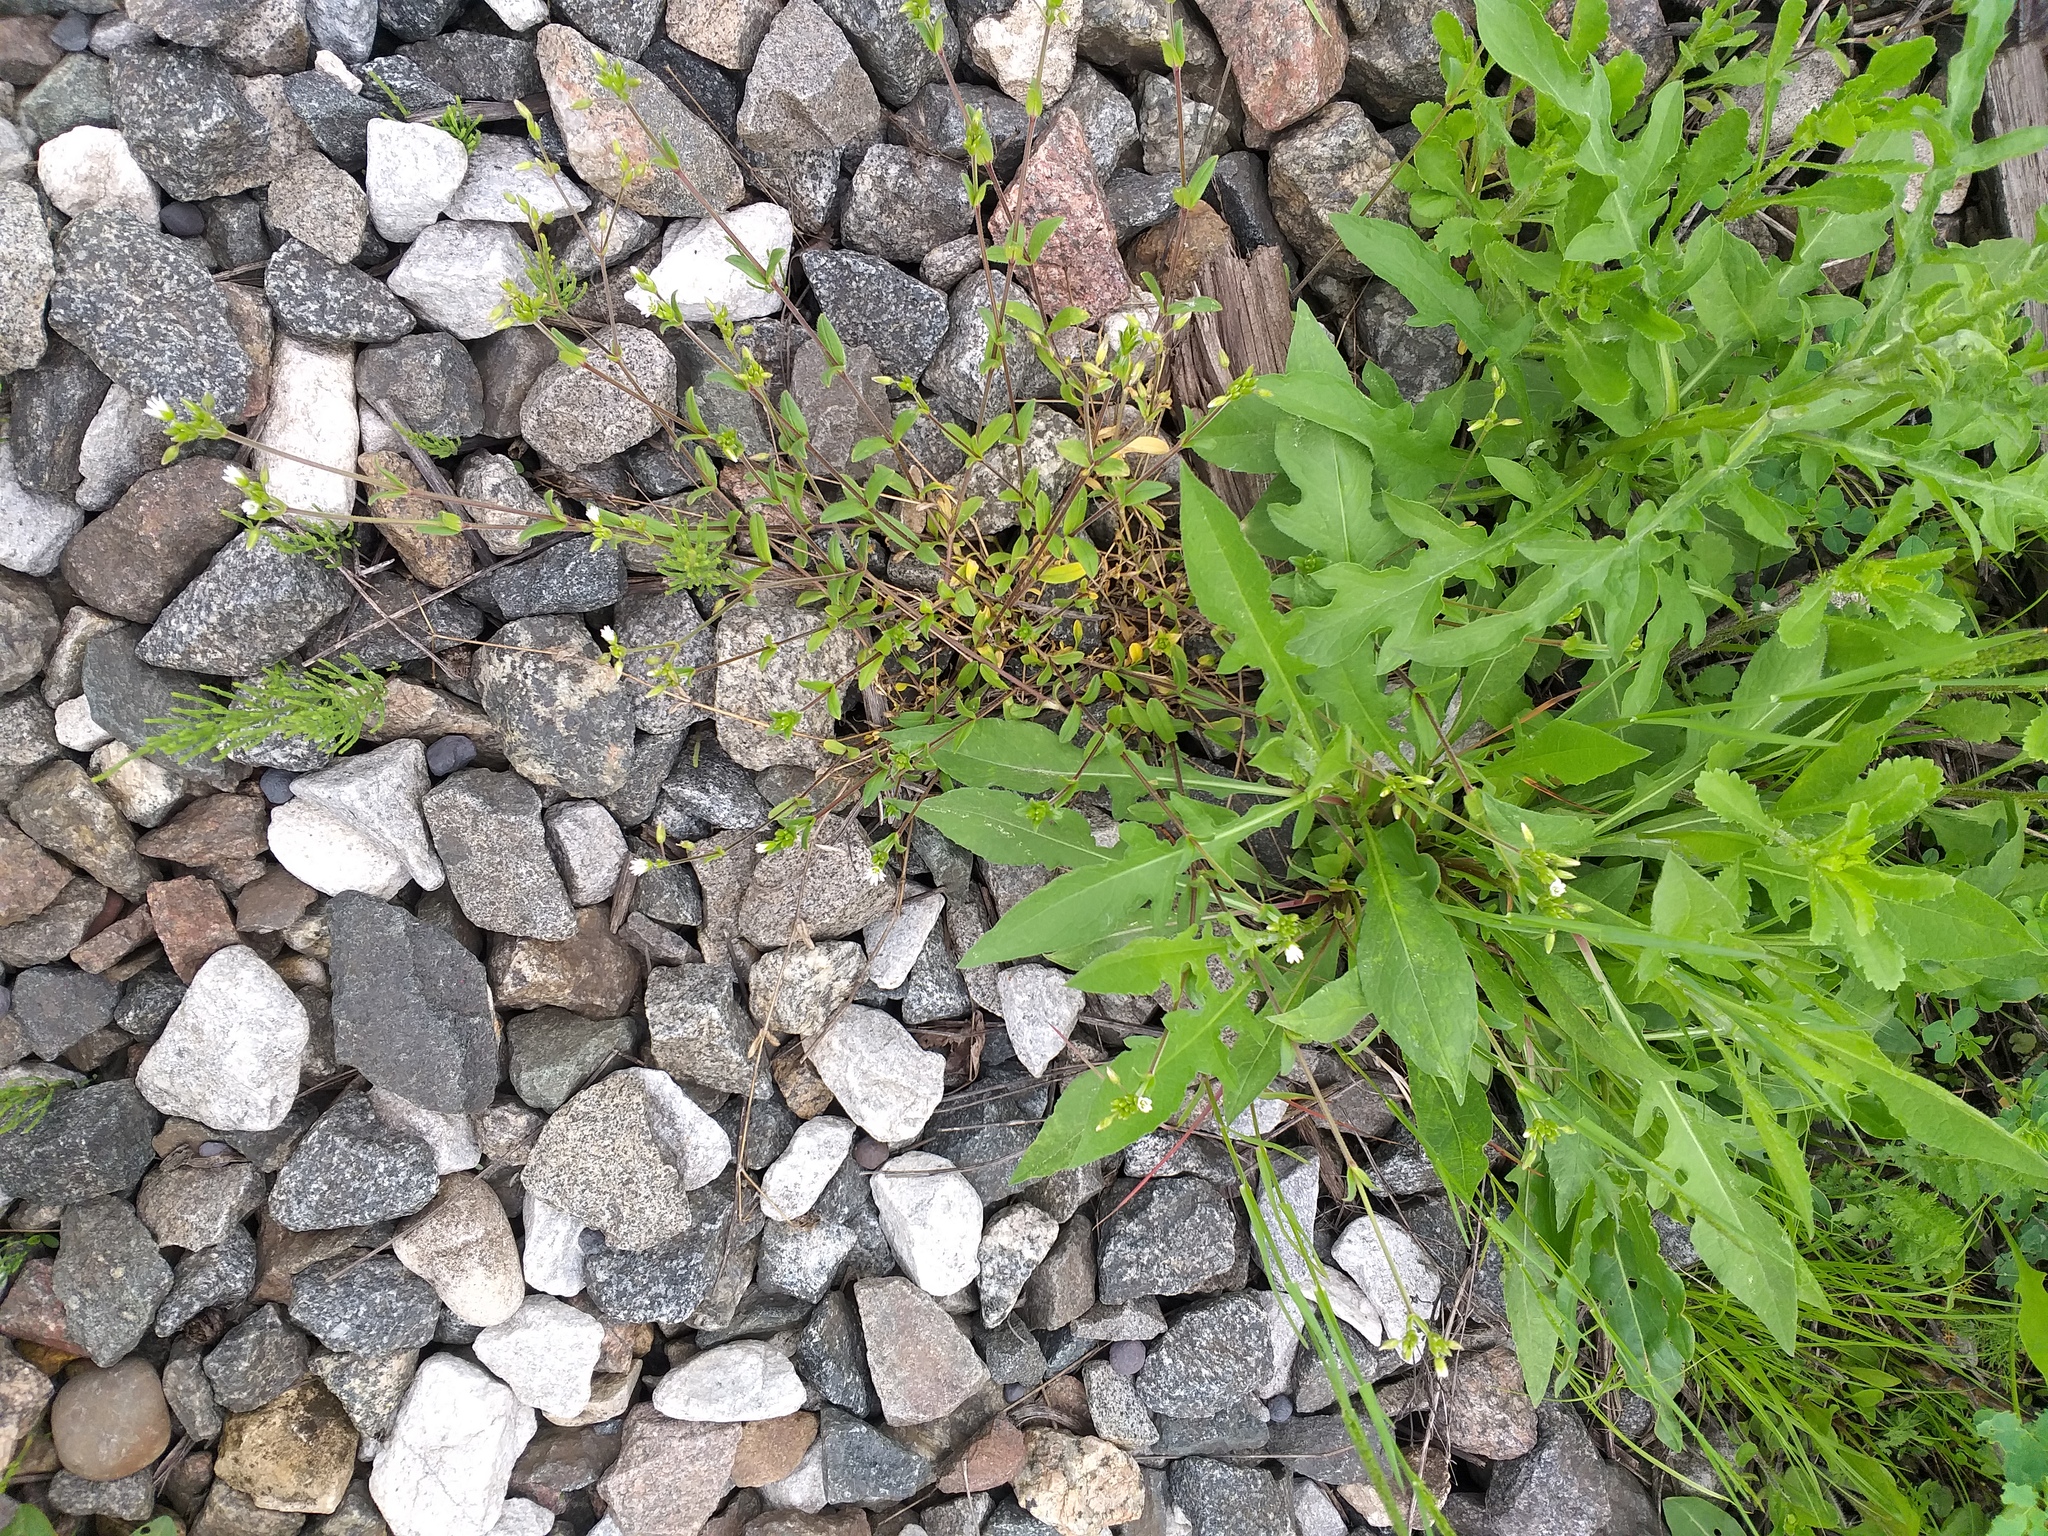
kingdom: Plantae
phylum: Tracheophyta
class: Magnoliopsida
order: Caryophyllales
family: Caryophyllaceae
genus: Cerastium
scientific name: Cerastium holosteoides
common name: Big chickweed
